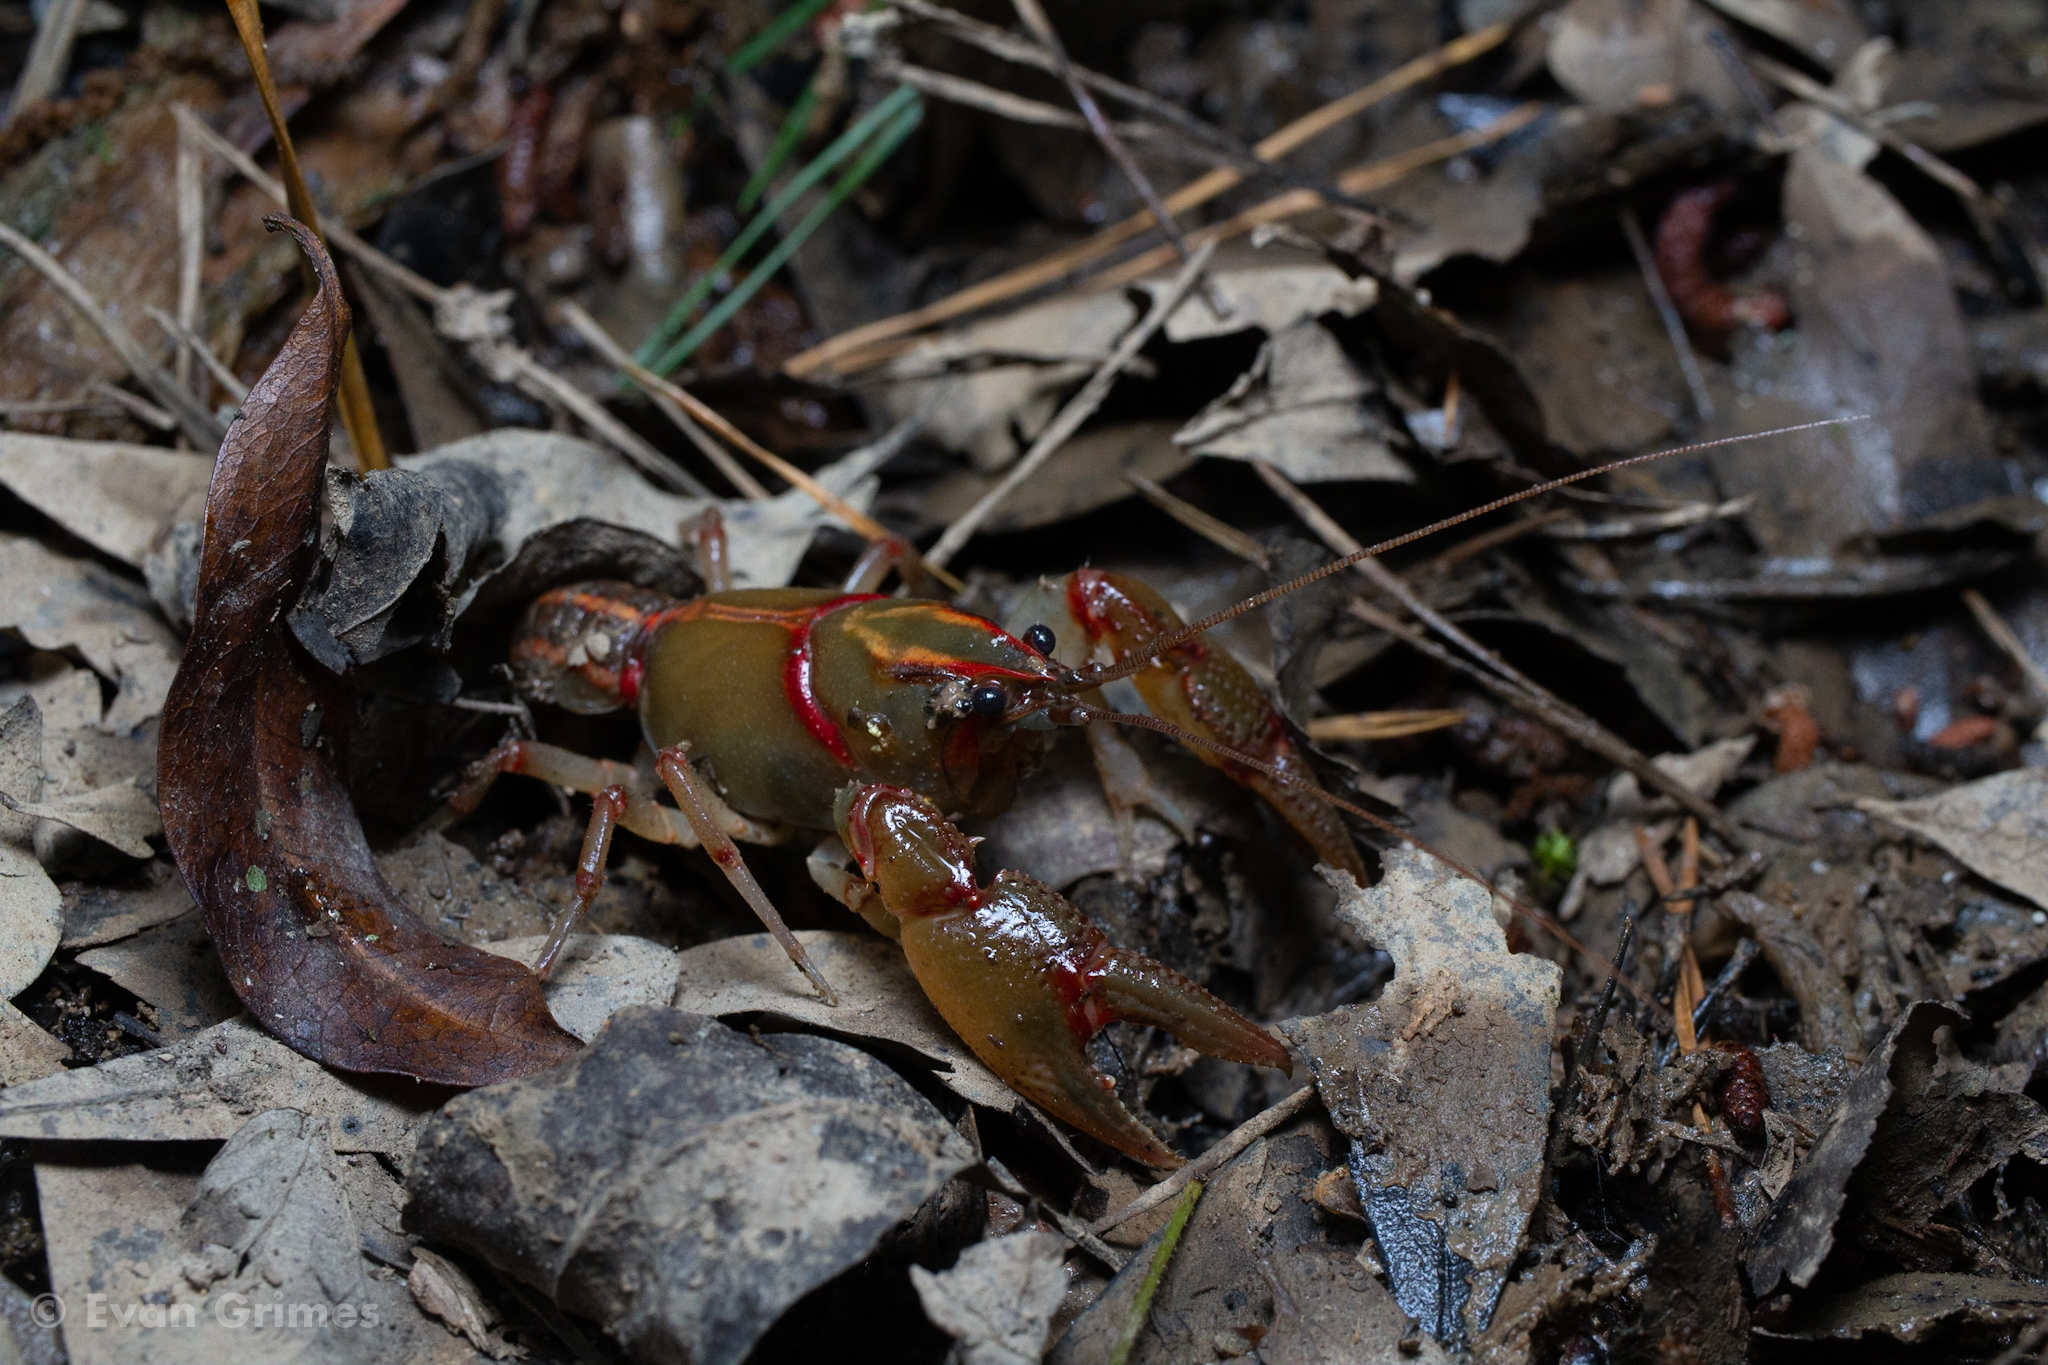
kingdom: Animalia
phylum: Arthropoda
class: Malacostraca
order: Decapoda
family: Cambaridae
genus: Lacunicambarus
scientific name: Lacunicambarus ludovicianus
